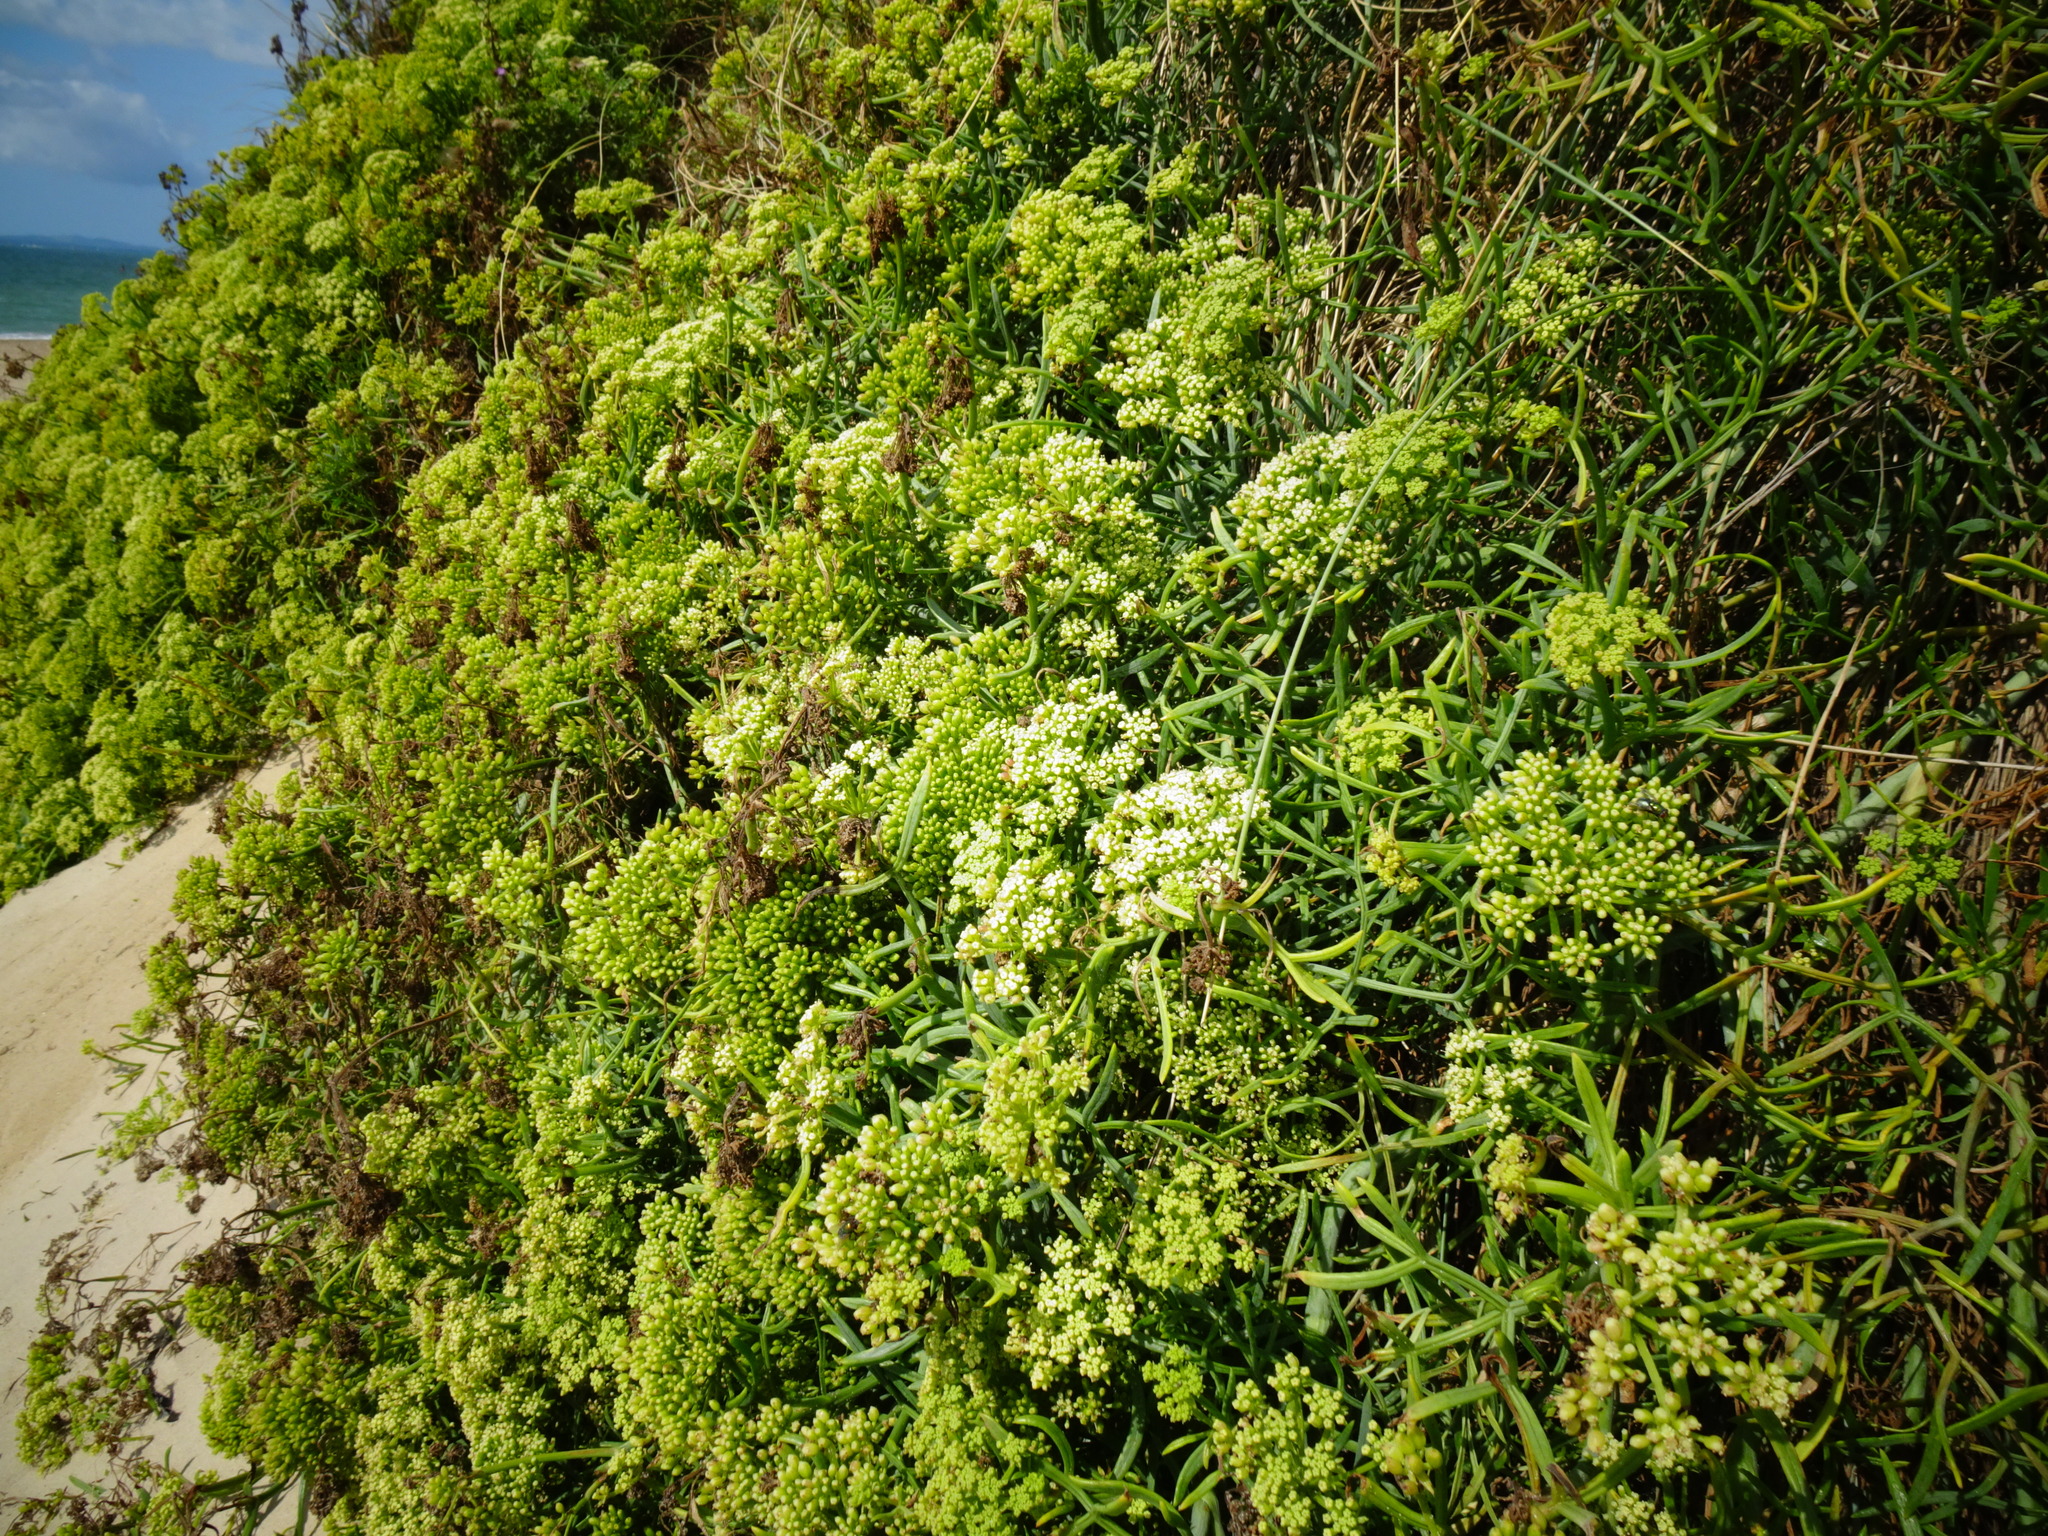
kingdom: Plantae
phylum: Tracheophyta
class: Magnoliopsida
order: Apiales
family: Apiaceae
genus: Crithmum
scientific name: Crithmum maritimum
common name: Rock samphire
